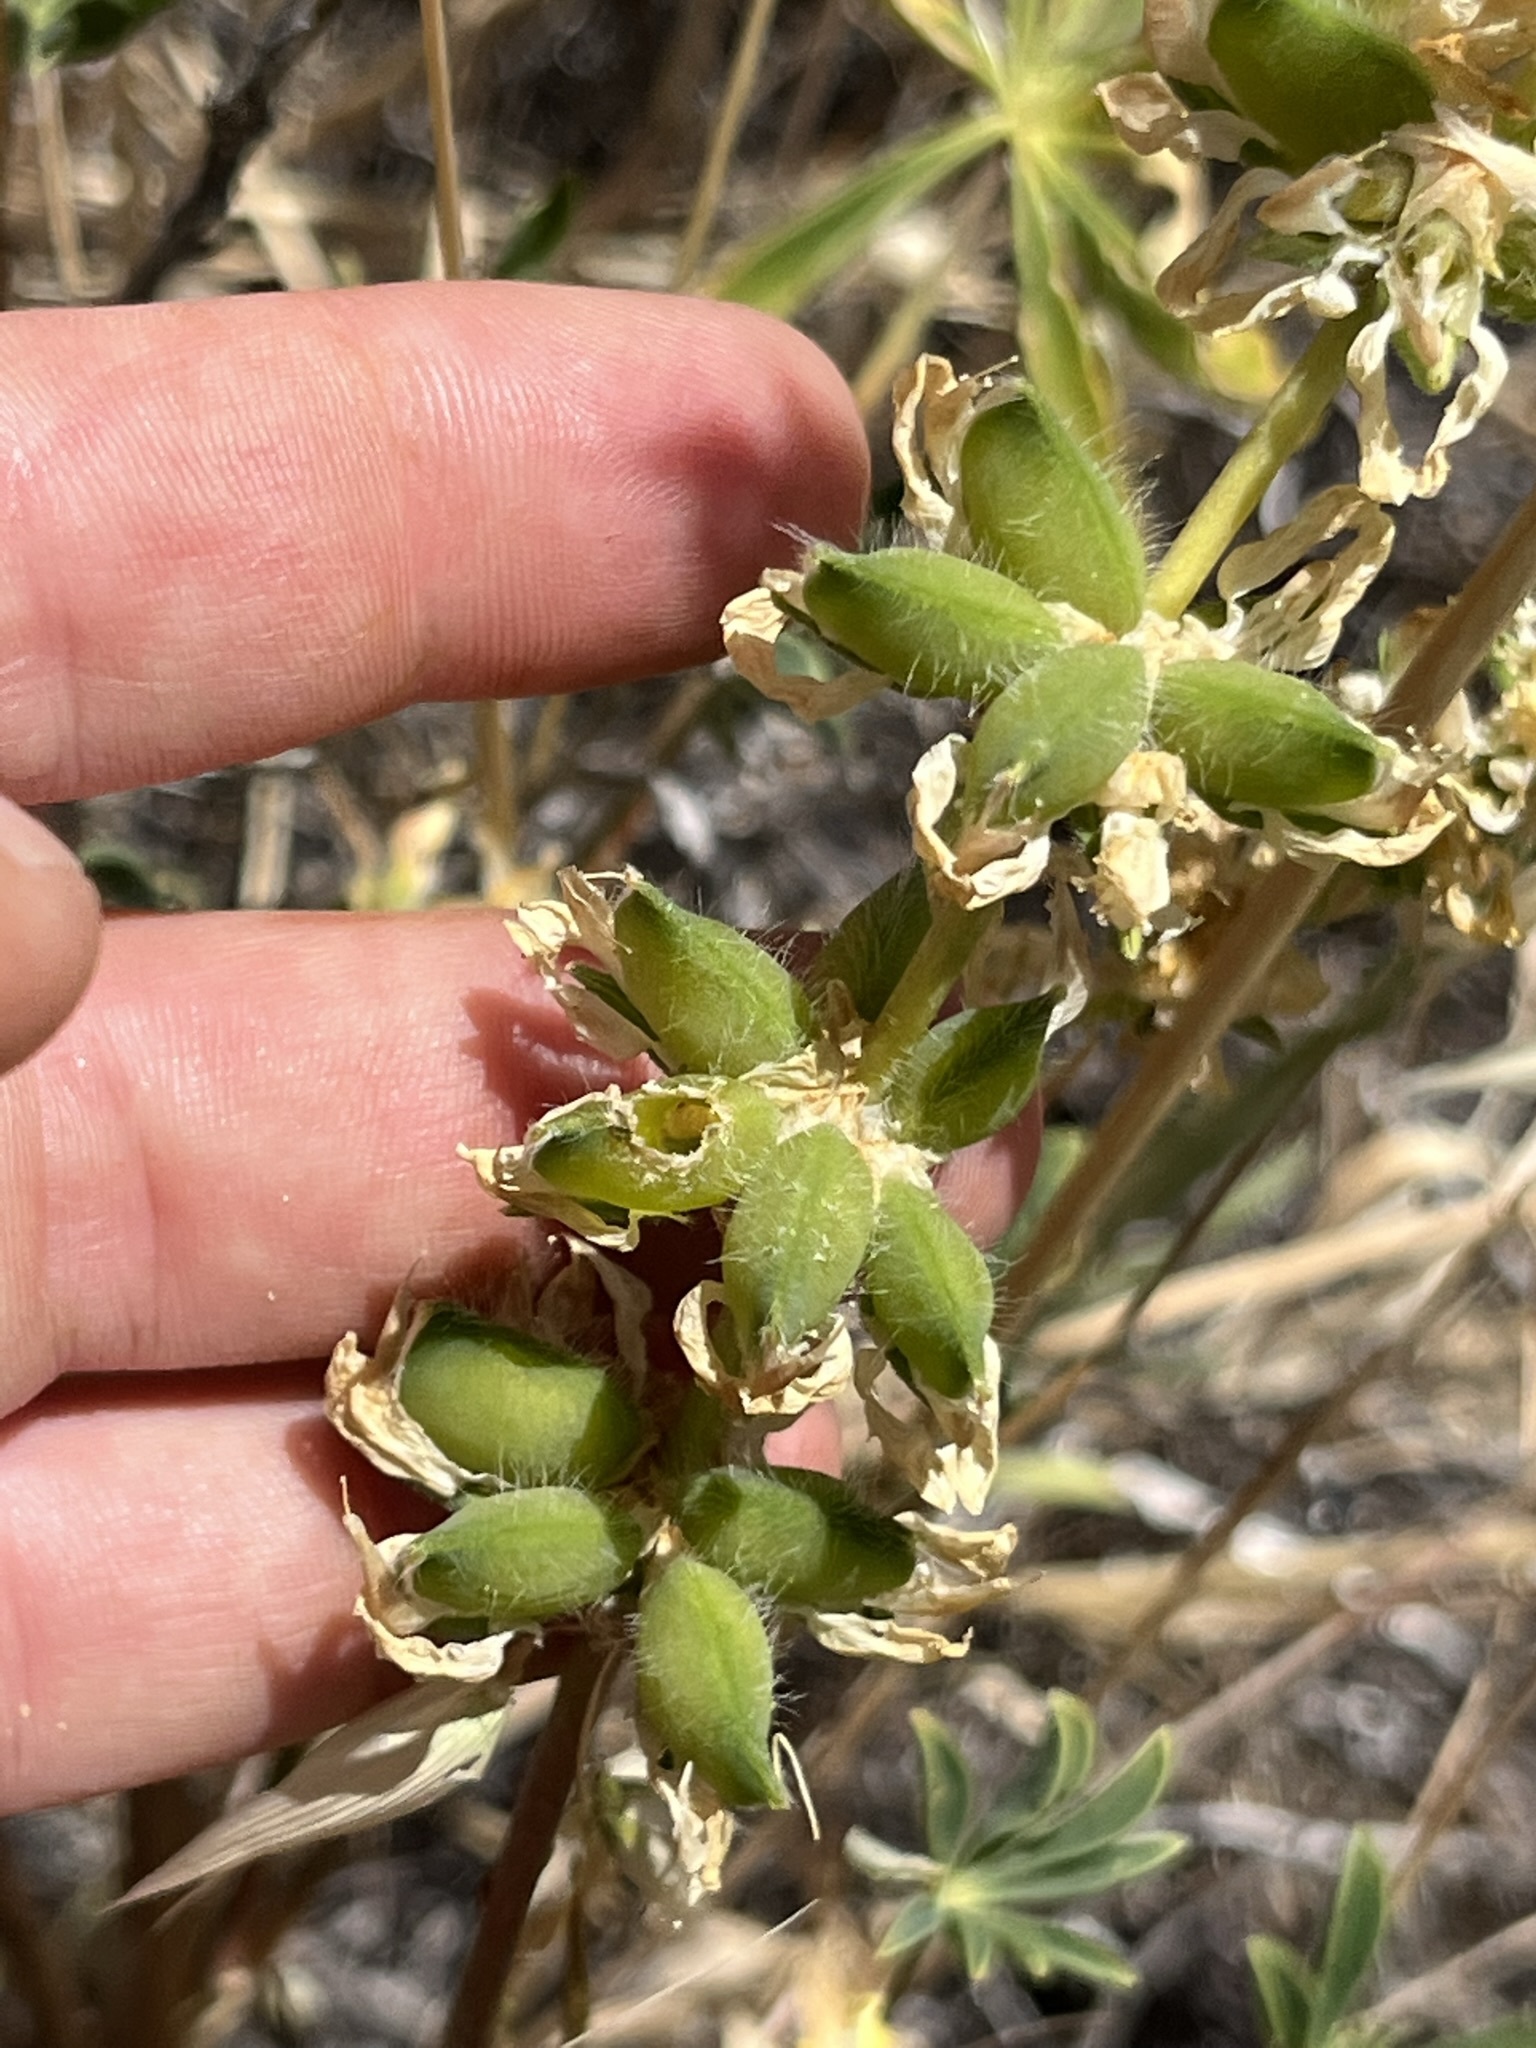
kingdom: Plantae
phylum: Tracheophyta
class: Magnoliopsida
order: Fabales
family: Fabaceae
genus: Lupinus
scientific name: Lupinus microcarpus
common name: Chick lupine
